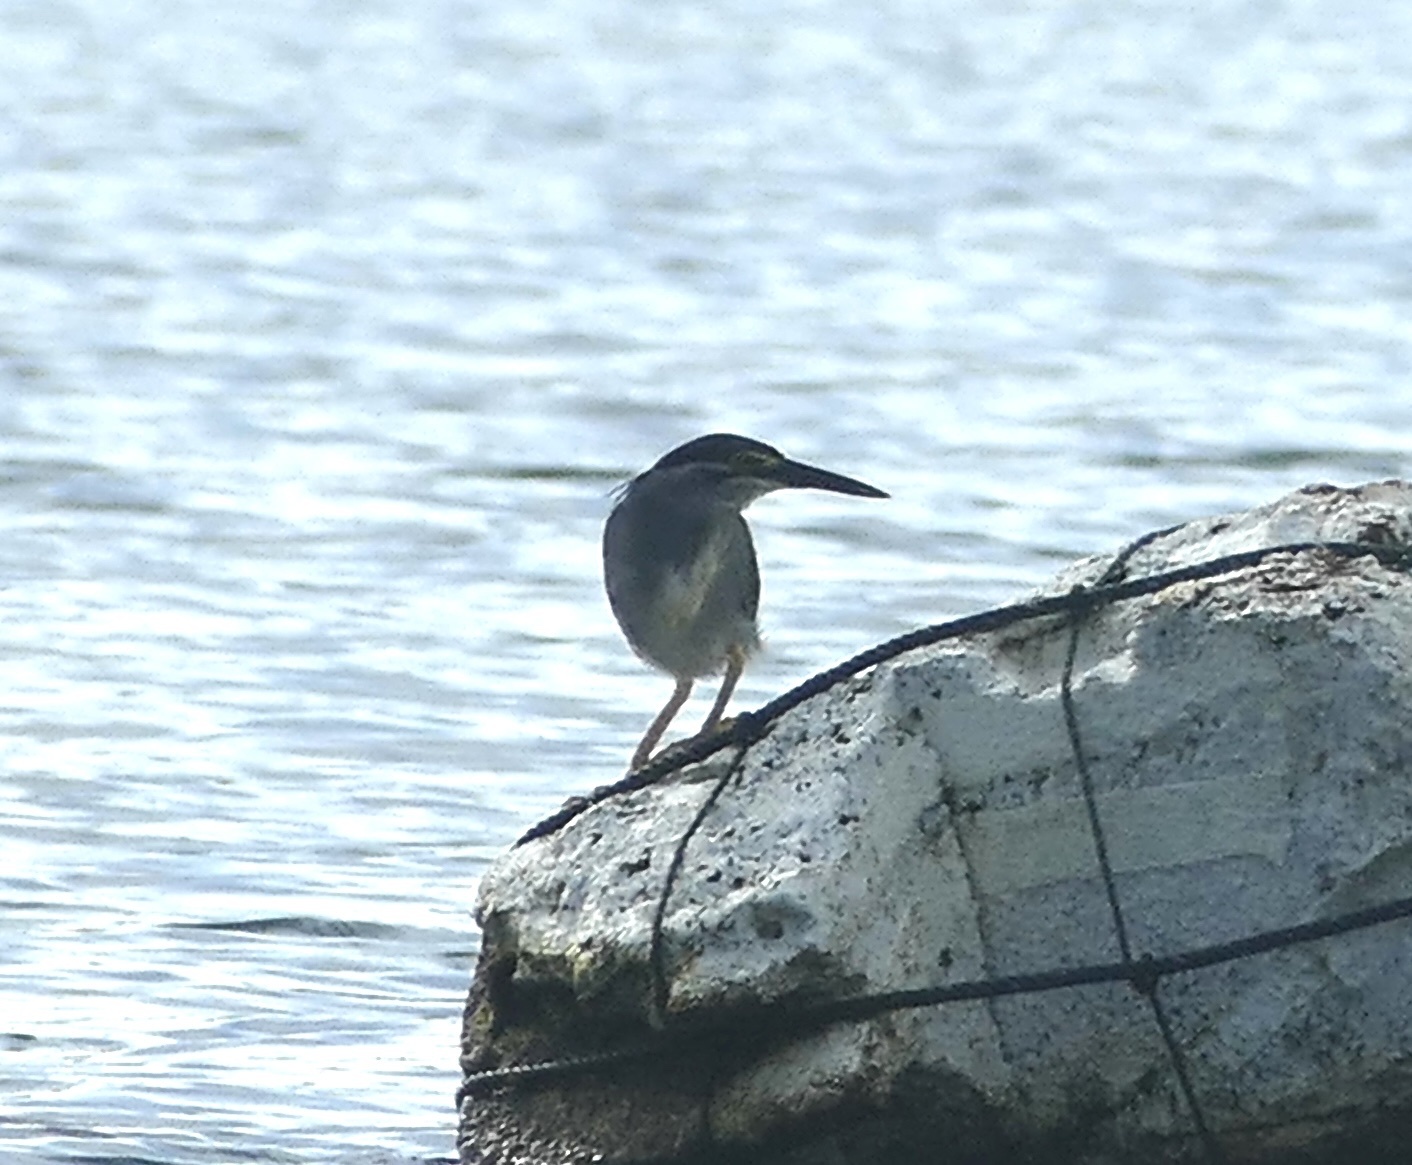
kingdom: Animalia
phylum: Chordata
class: Aves
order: Pelecaniformes
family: Ardeidae
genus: Butorides
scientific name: Butorides striata
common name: Striated heron
